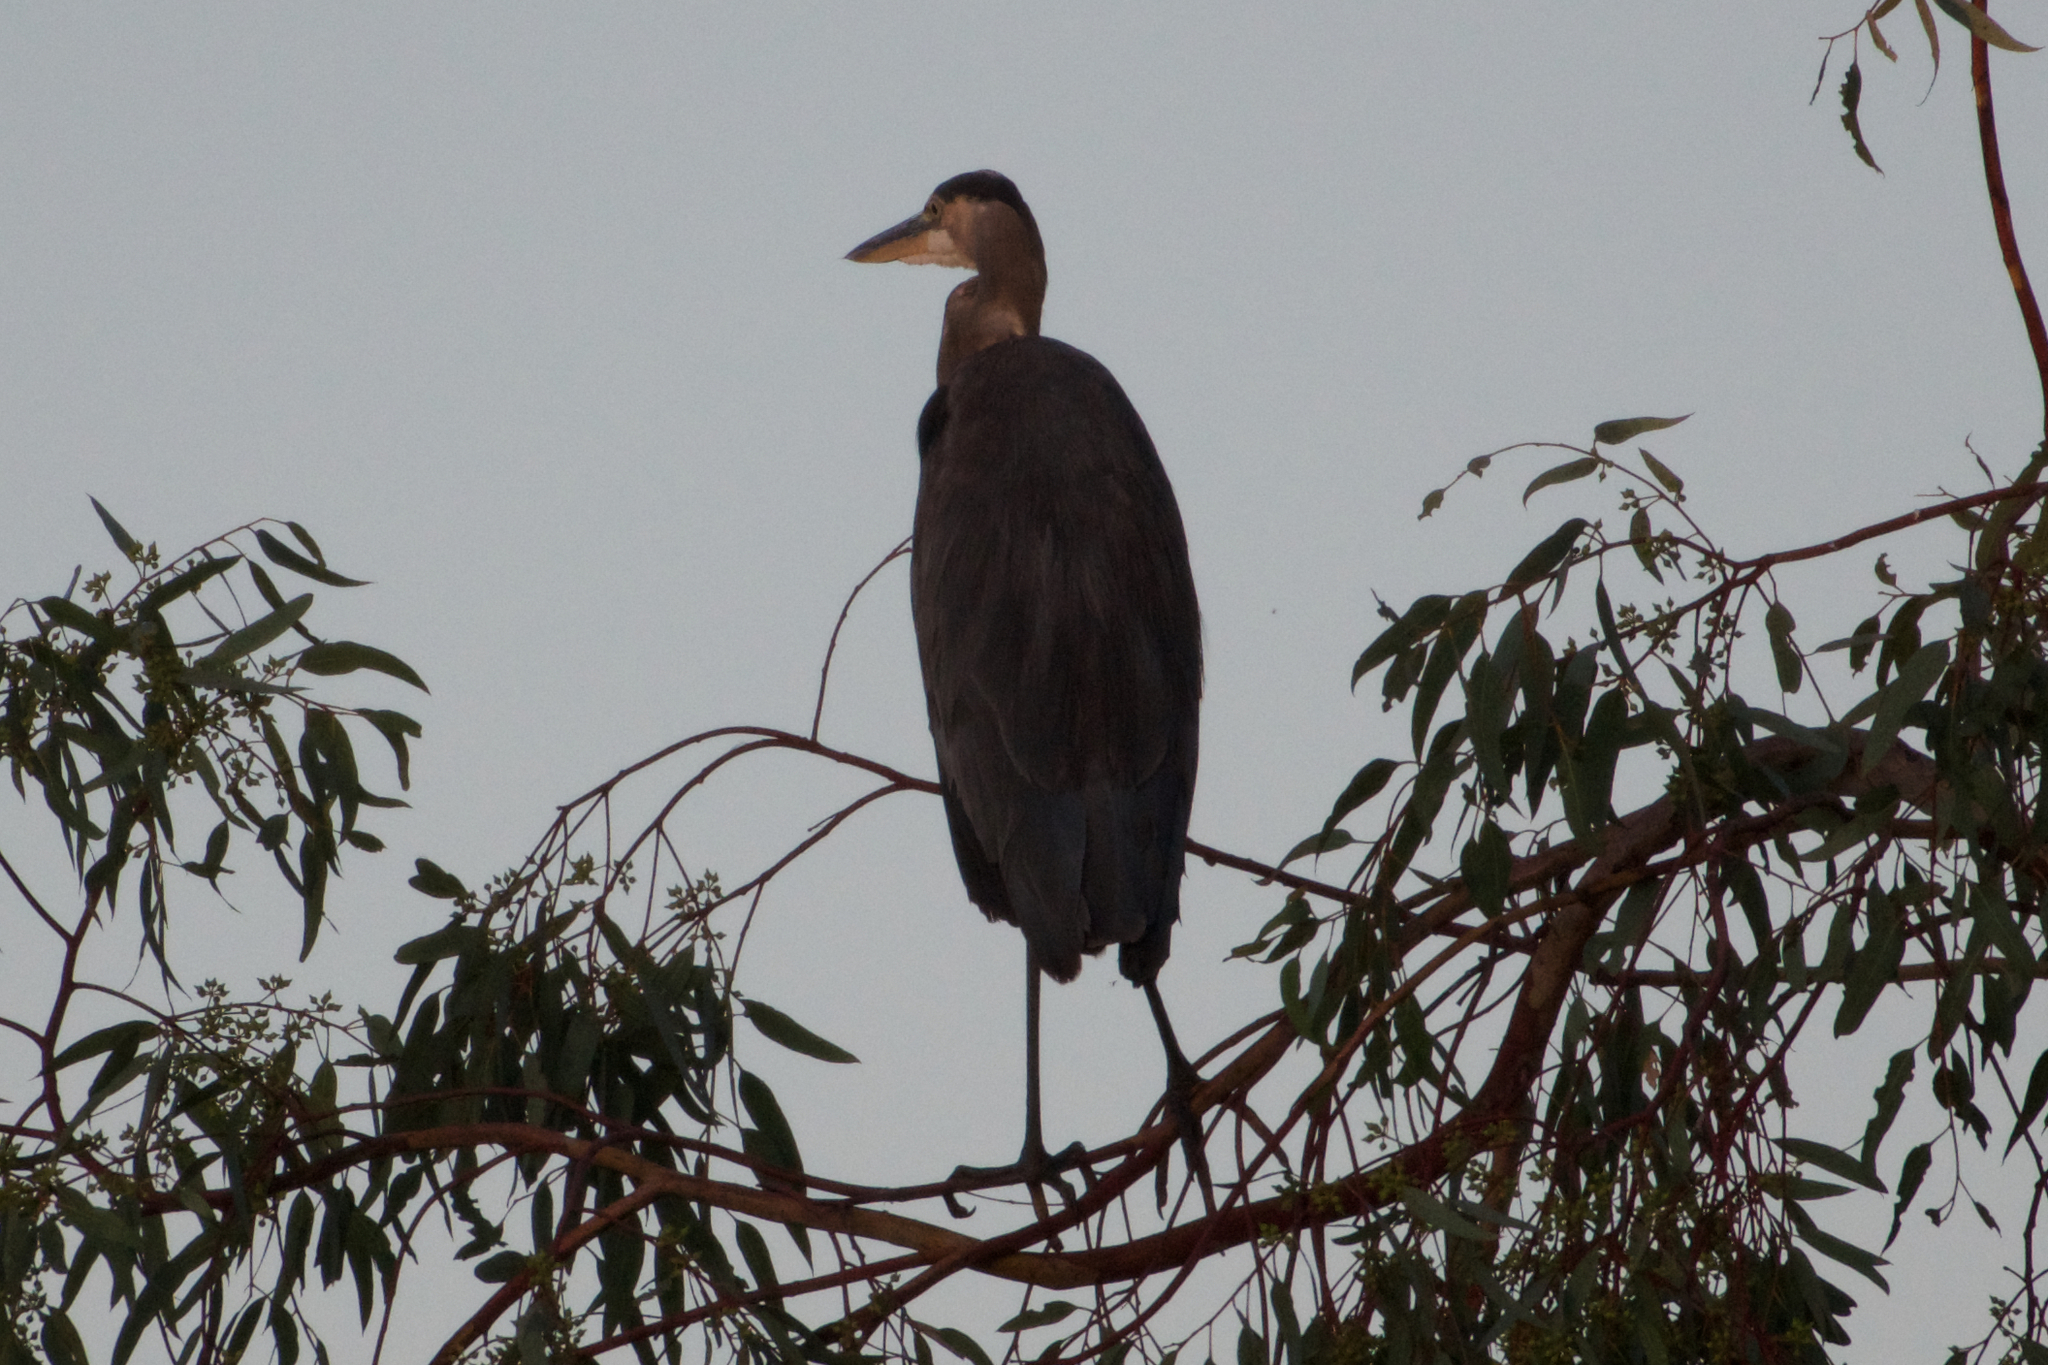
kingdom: Animalia
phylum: Chordata
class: Aves
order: Pelecaniformes
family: Ardeidae
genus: Ardea
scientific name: Ardea herodias
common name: Great blue heron
